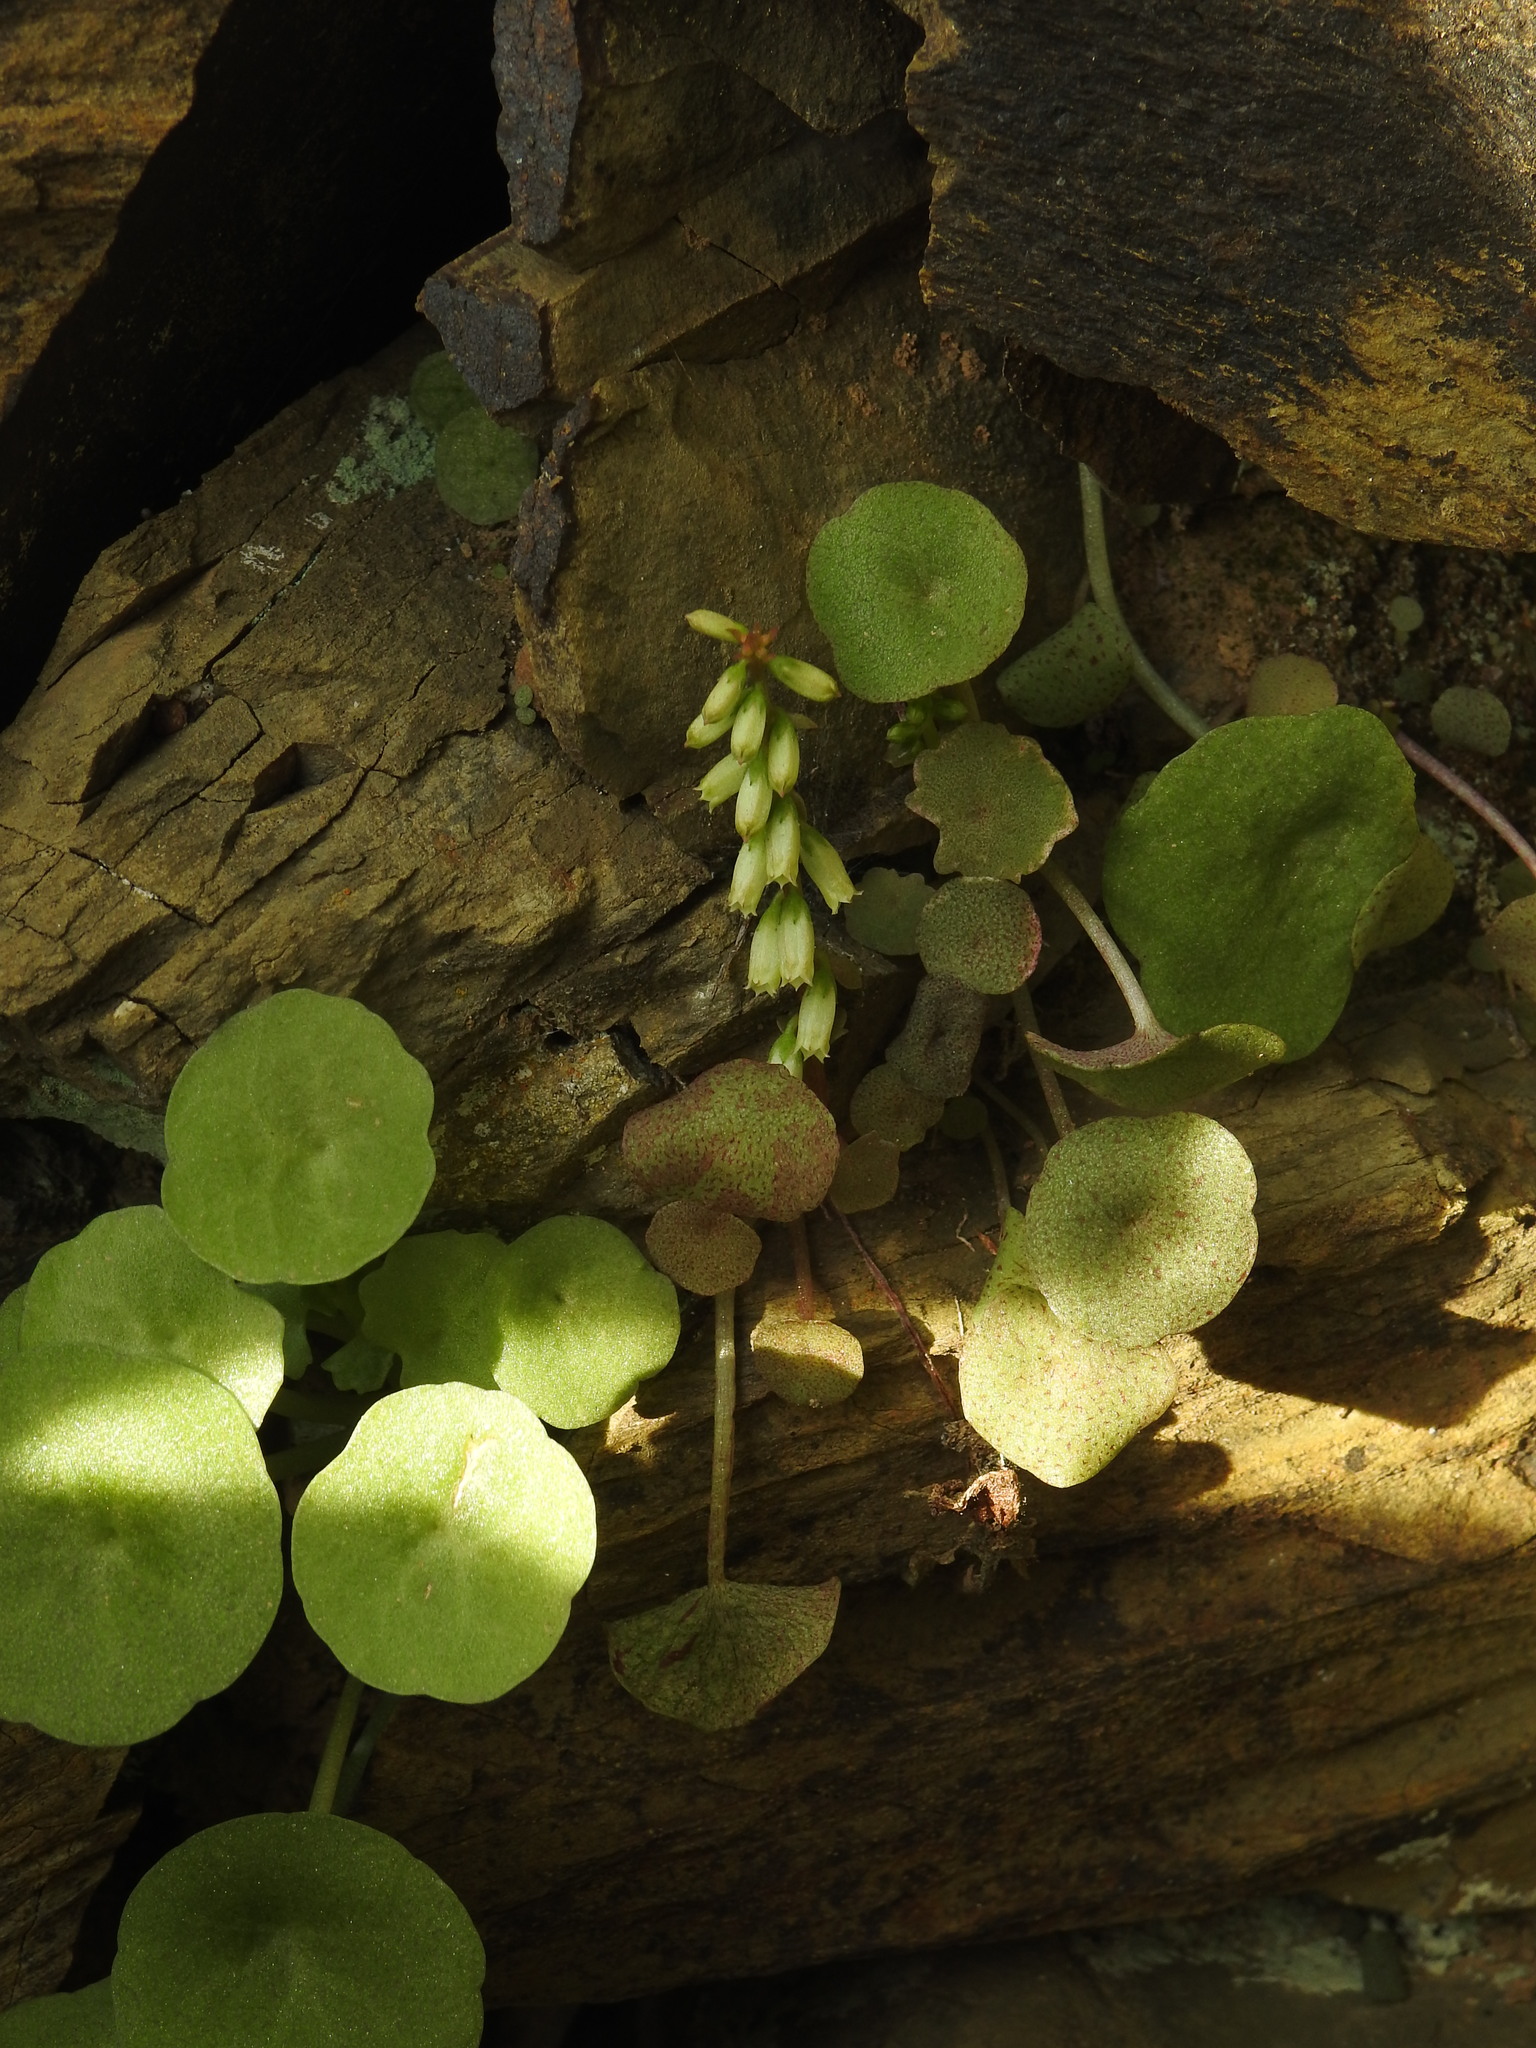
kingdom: Plantae
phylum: Tracheophyta
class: Magnoliopsida
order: Saxifragales
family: Crassulaceae
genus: Umbilicus
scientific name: Umbilicus rupestris
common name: Navelwort
